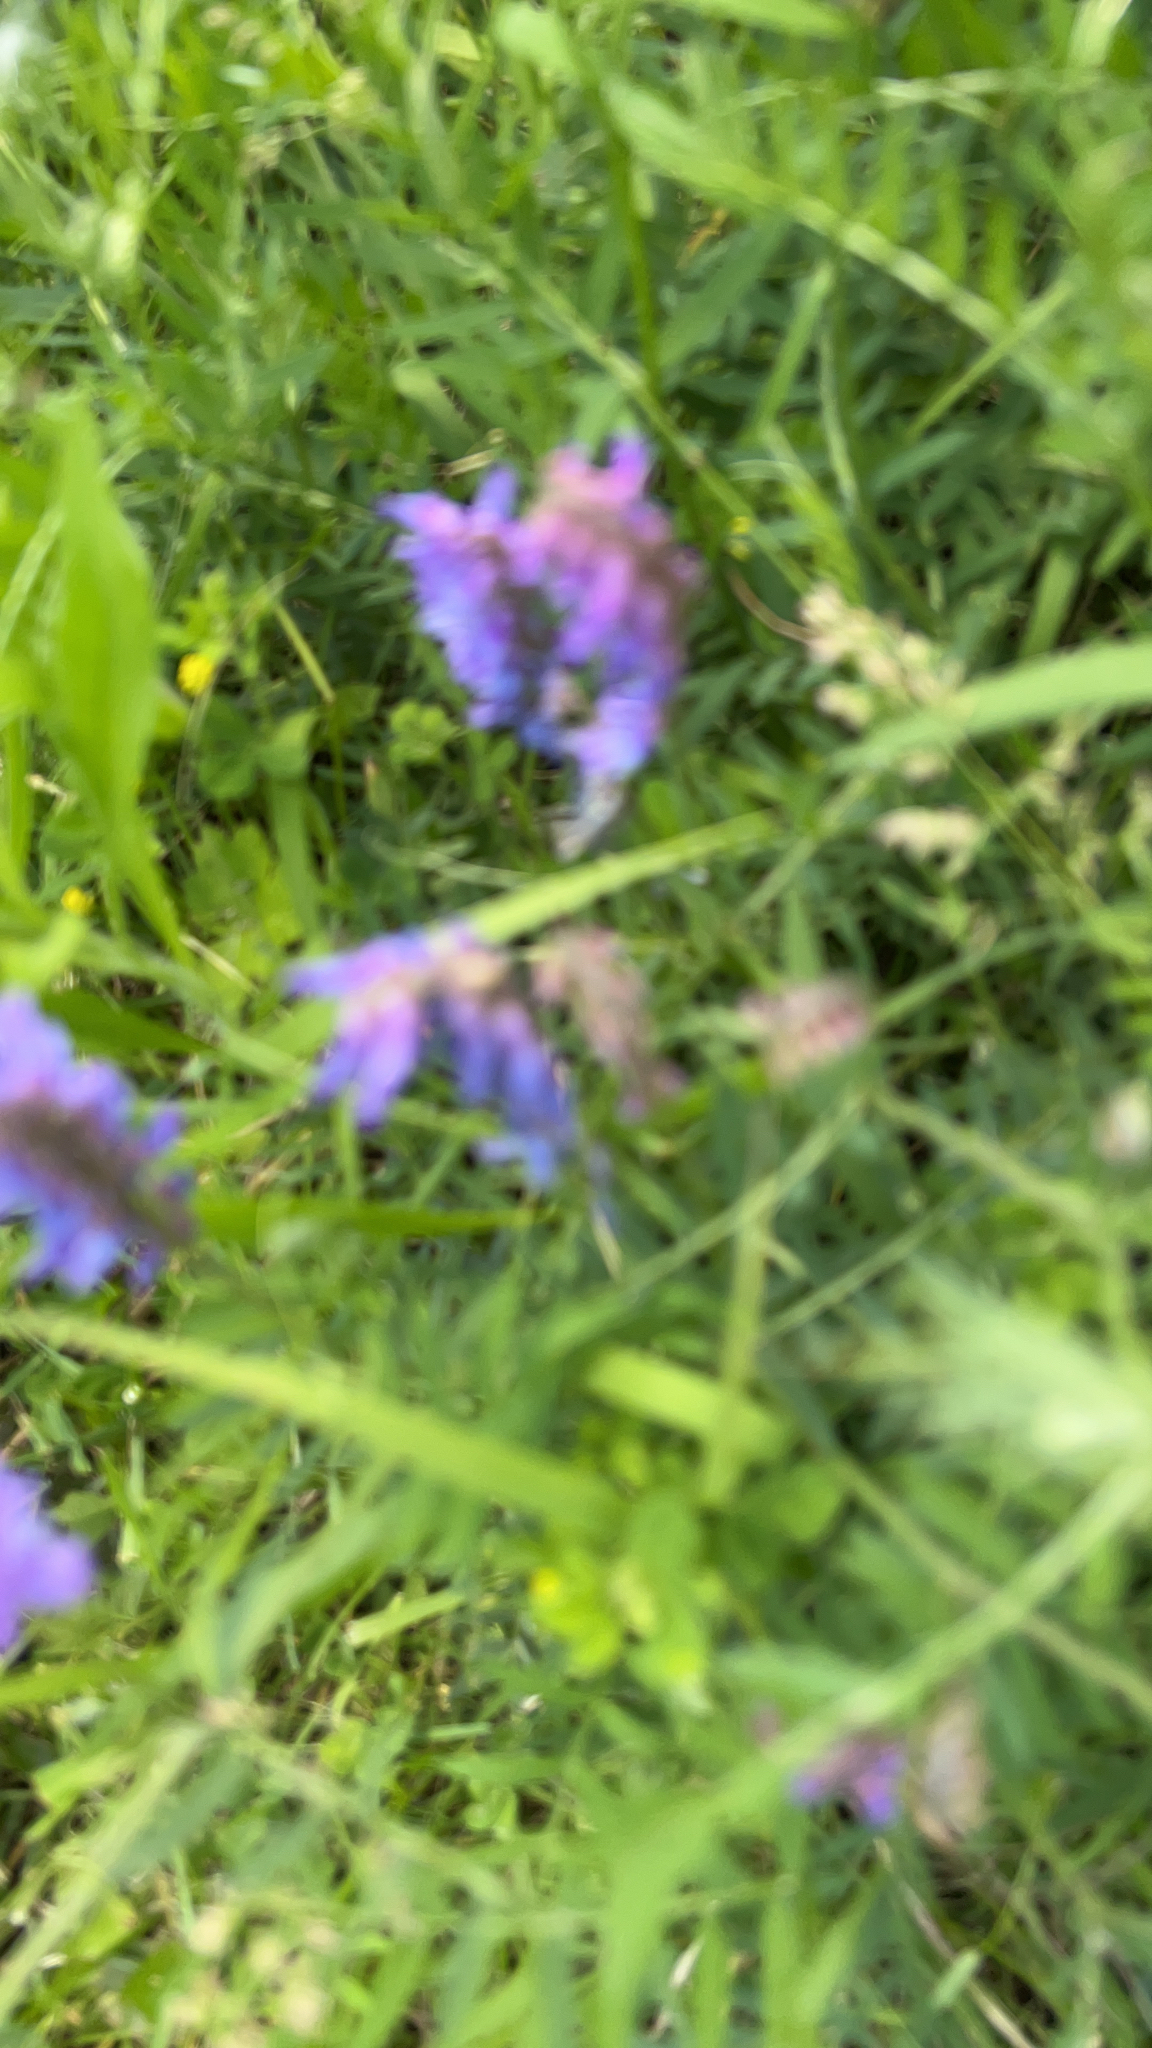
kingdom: Plantae
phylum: Tracheophyta
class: Magnoliopsida
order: Fabales
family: Fabaceae
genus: Vicia
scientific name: Vicia cracca
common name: Bird vetch
